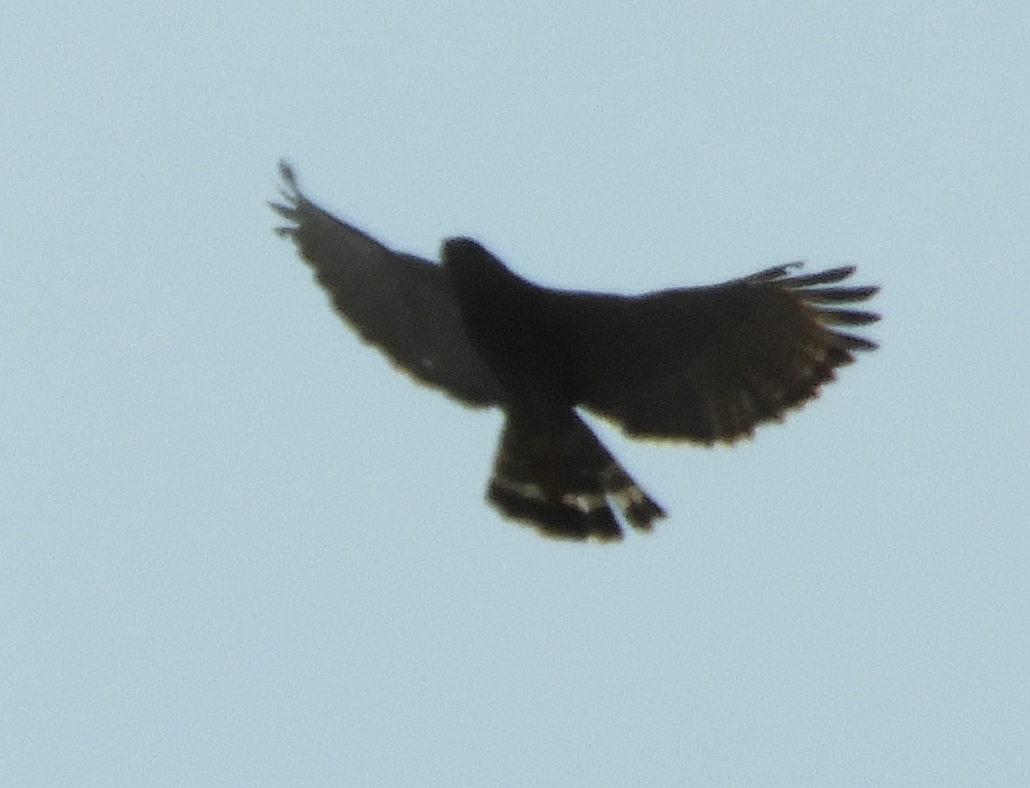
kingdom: Animalia
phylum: Chordata
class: Aves
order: Accipitriformes
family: Accipitridae
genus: Buteo
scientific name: Buteo nitidus
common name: Grey-lined hawk
